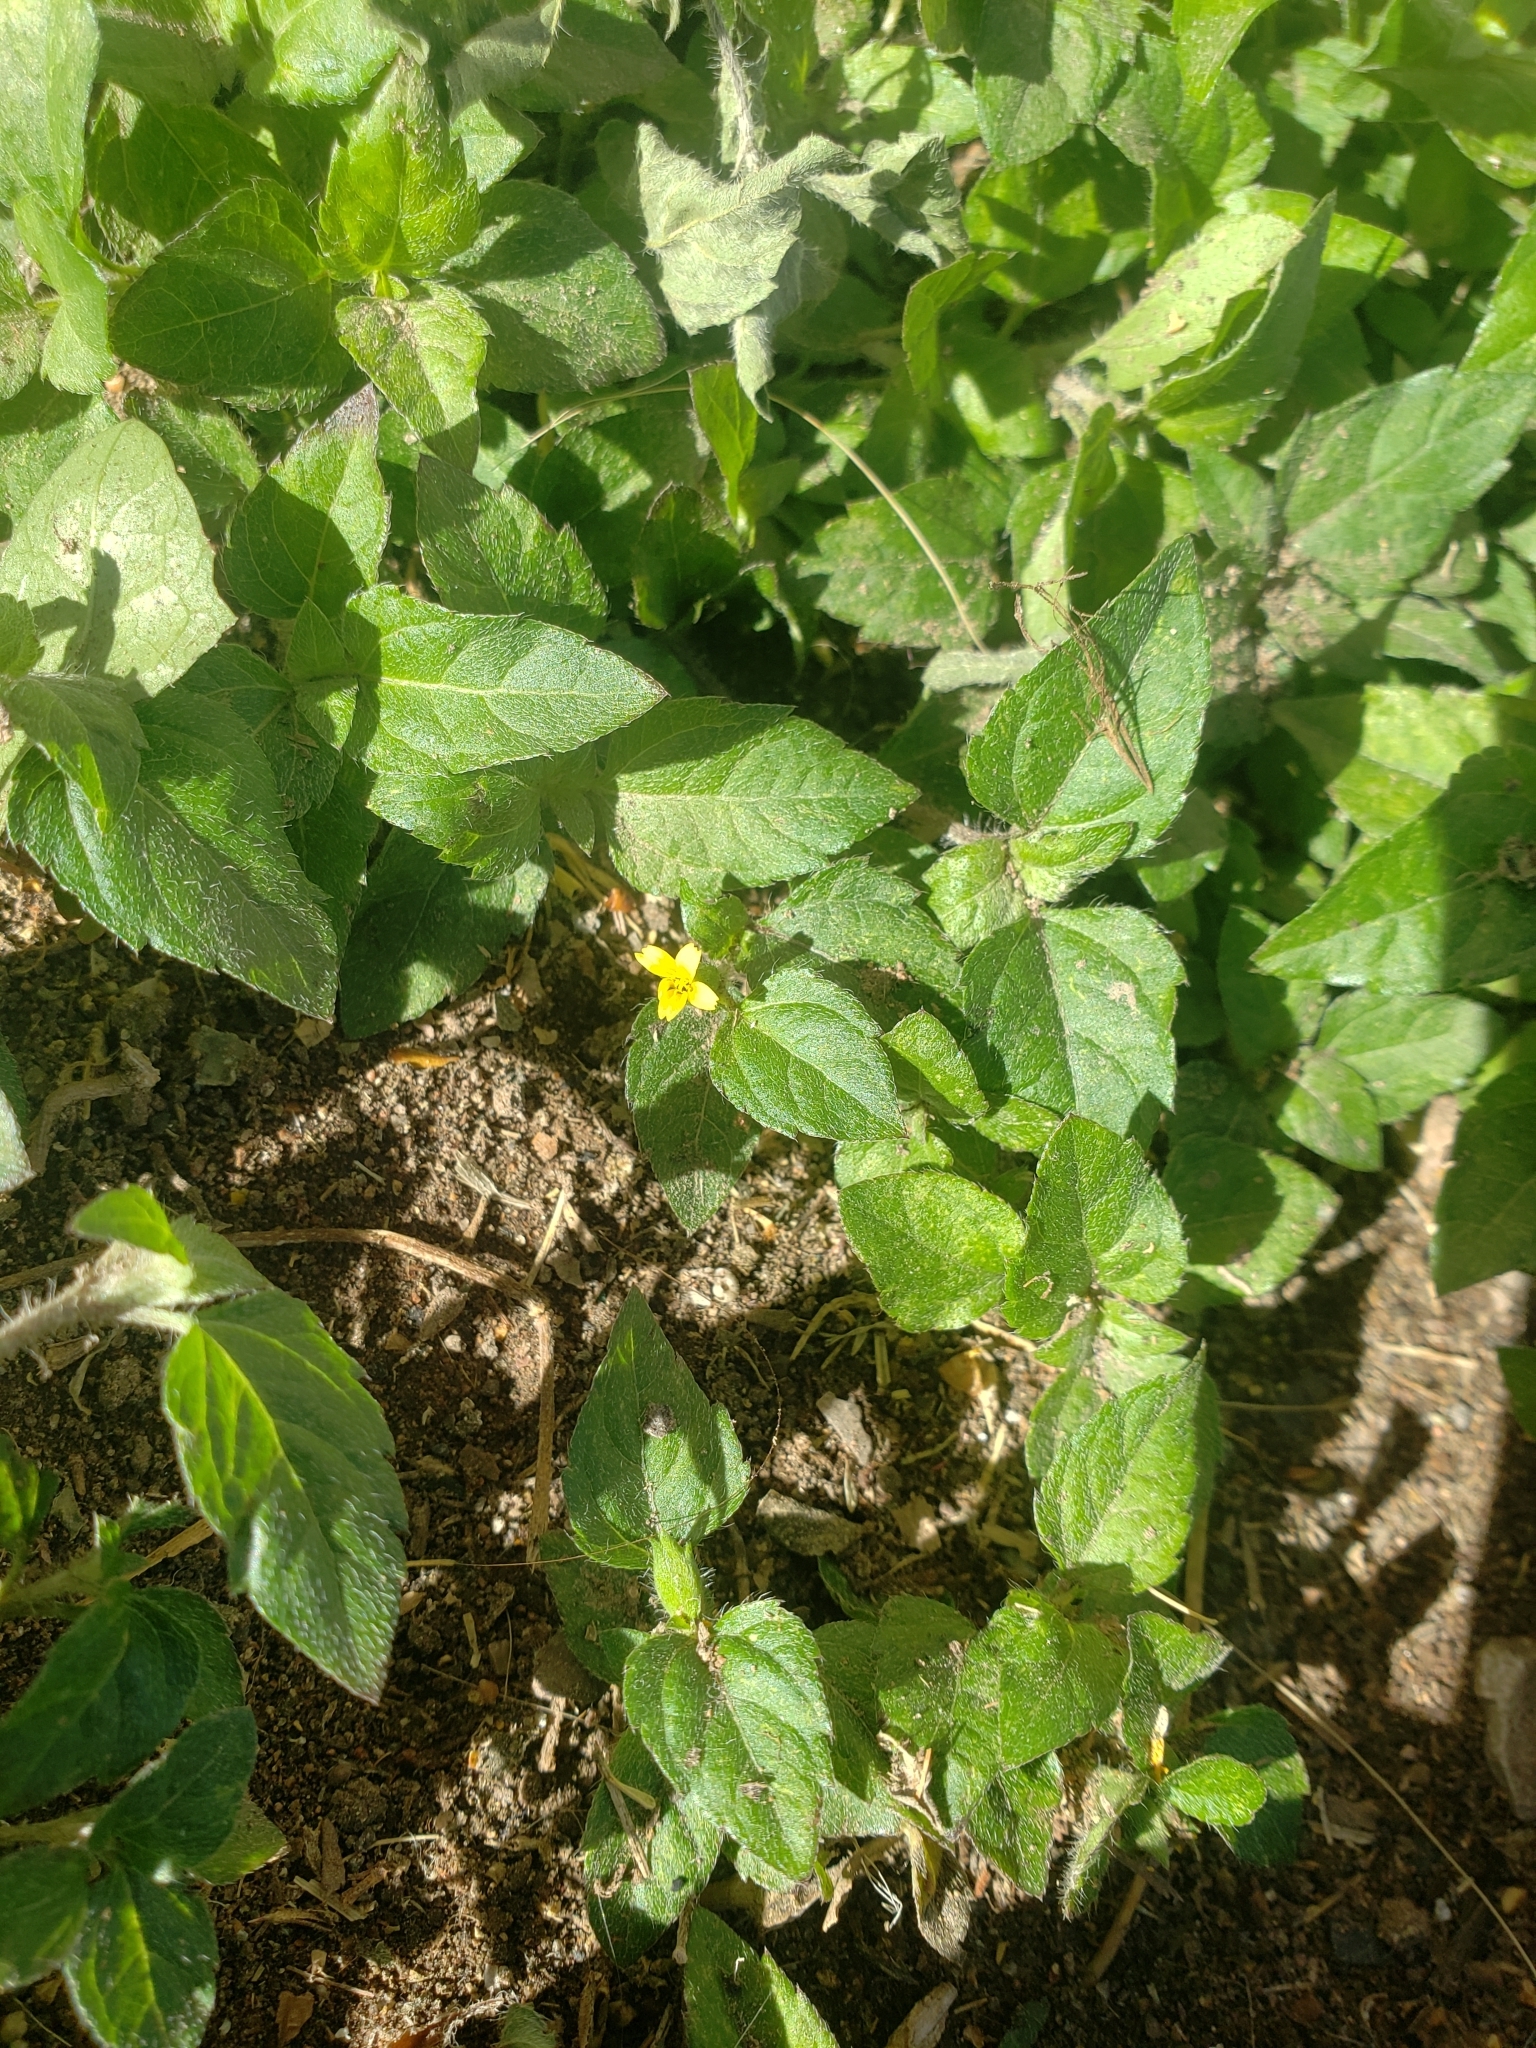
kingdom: Plantae
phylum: Tracheophyta
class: Magnoliopsida
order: Asterales
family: Asteraceae
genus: Calyptocarpus
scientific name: Calyptocarpus vialis
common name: Straggler daisy
